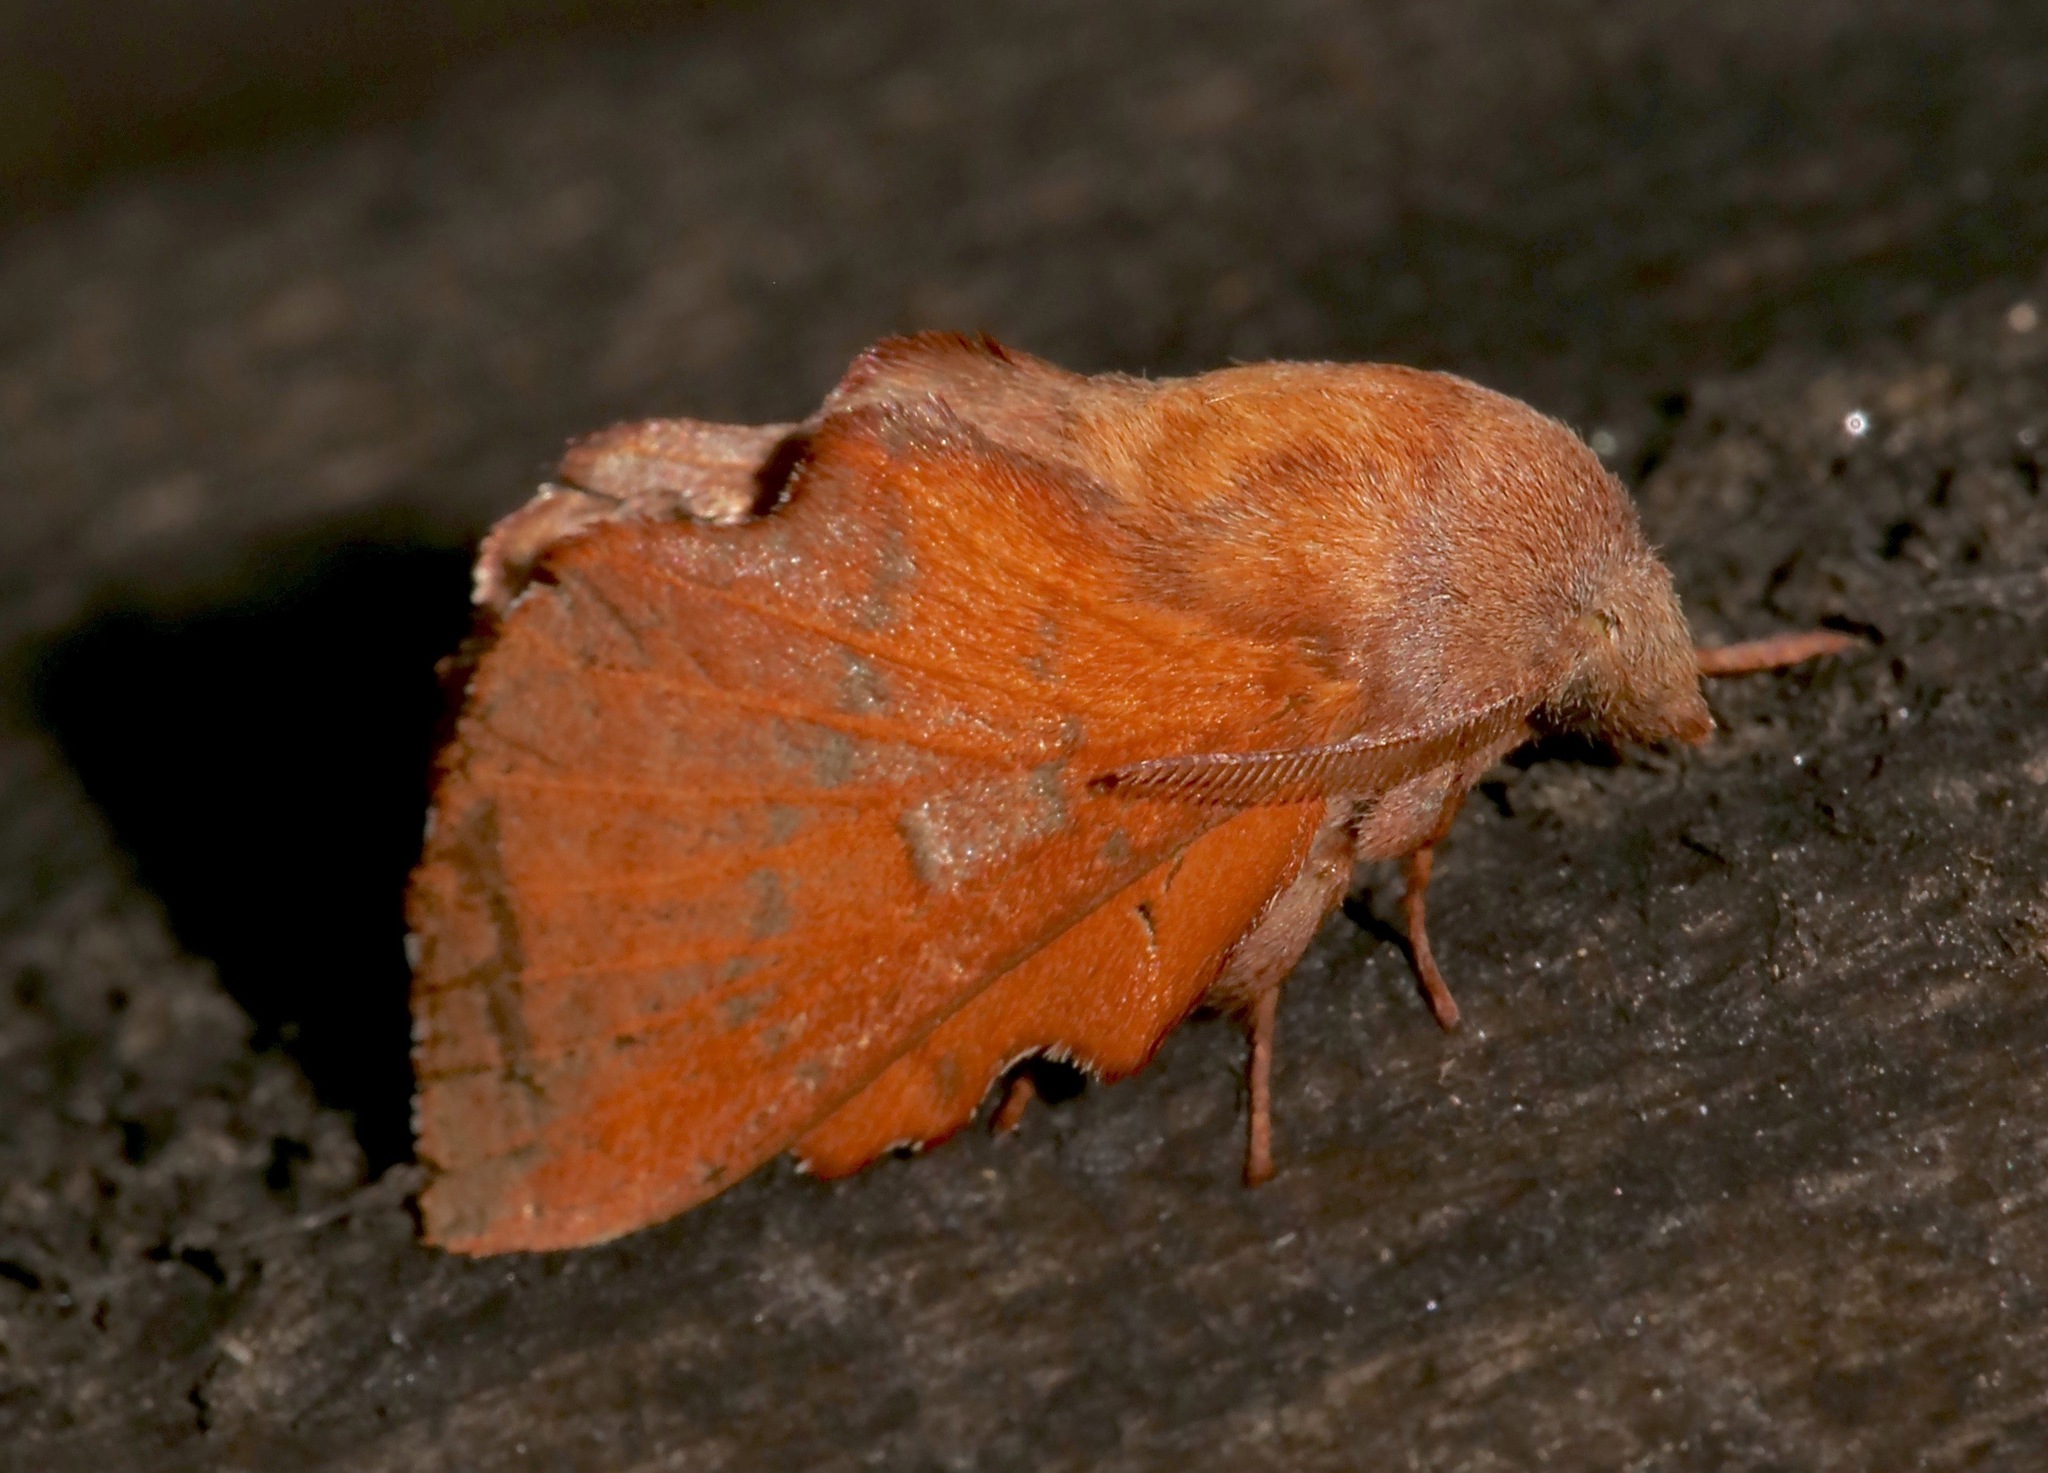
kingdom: Animalia
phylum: Arthropoda
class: Insecta
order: Lepidoptera
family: Lasiocampidae
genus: Phyllodesma
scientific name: Phyllodesma americana
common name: American lappet moth
